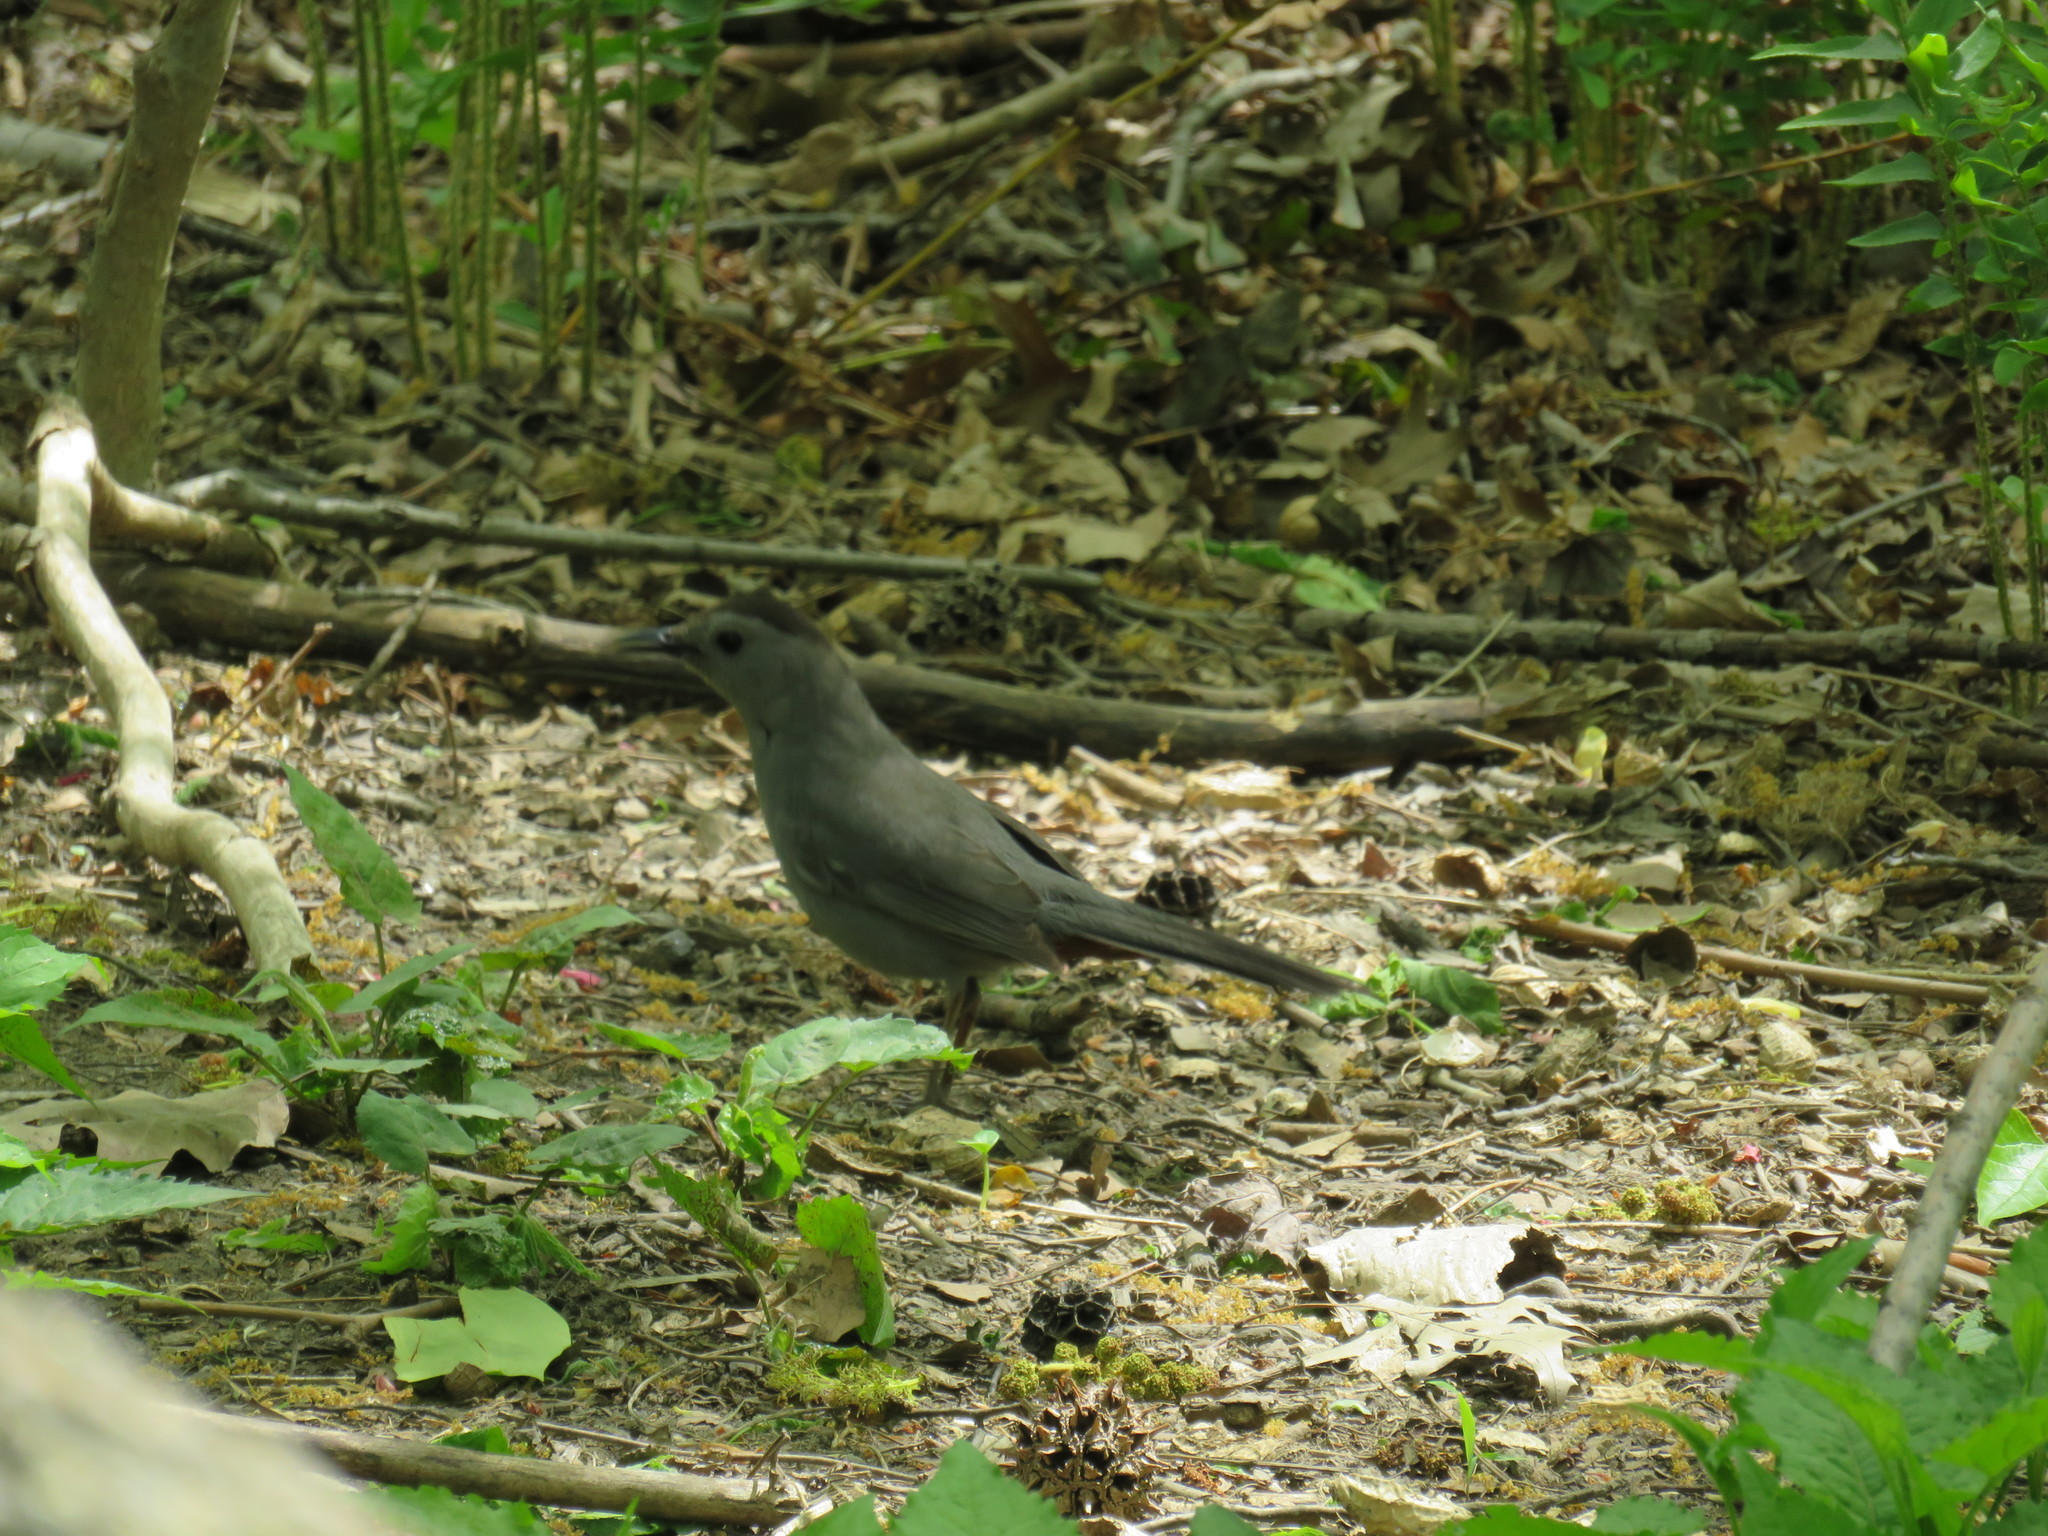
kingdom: Animalia
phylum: Chordata
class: Aves
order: Passeriformes
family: Mimidae
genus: Dumetella
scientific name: Dumetella carolinensis
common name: Gray catbird
